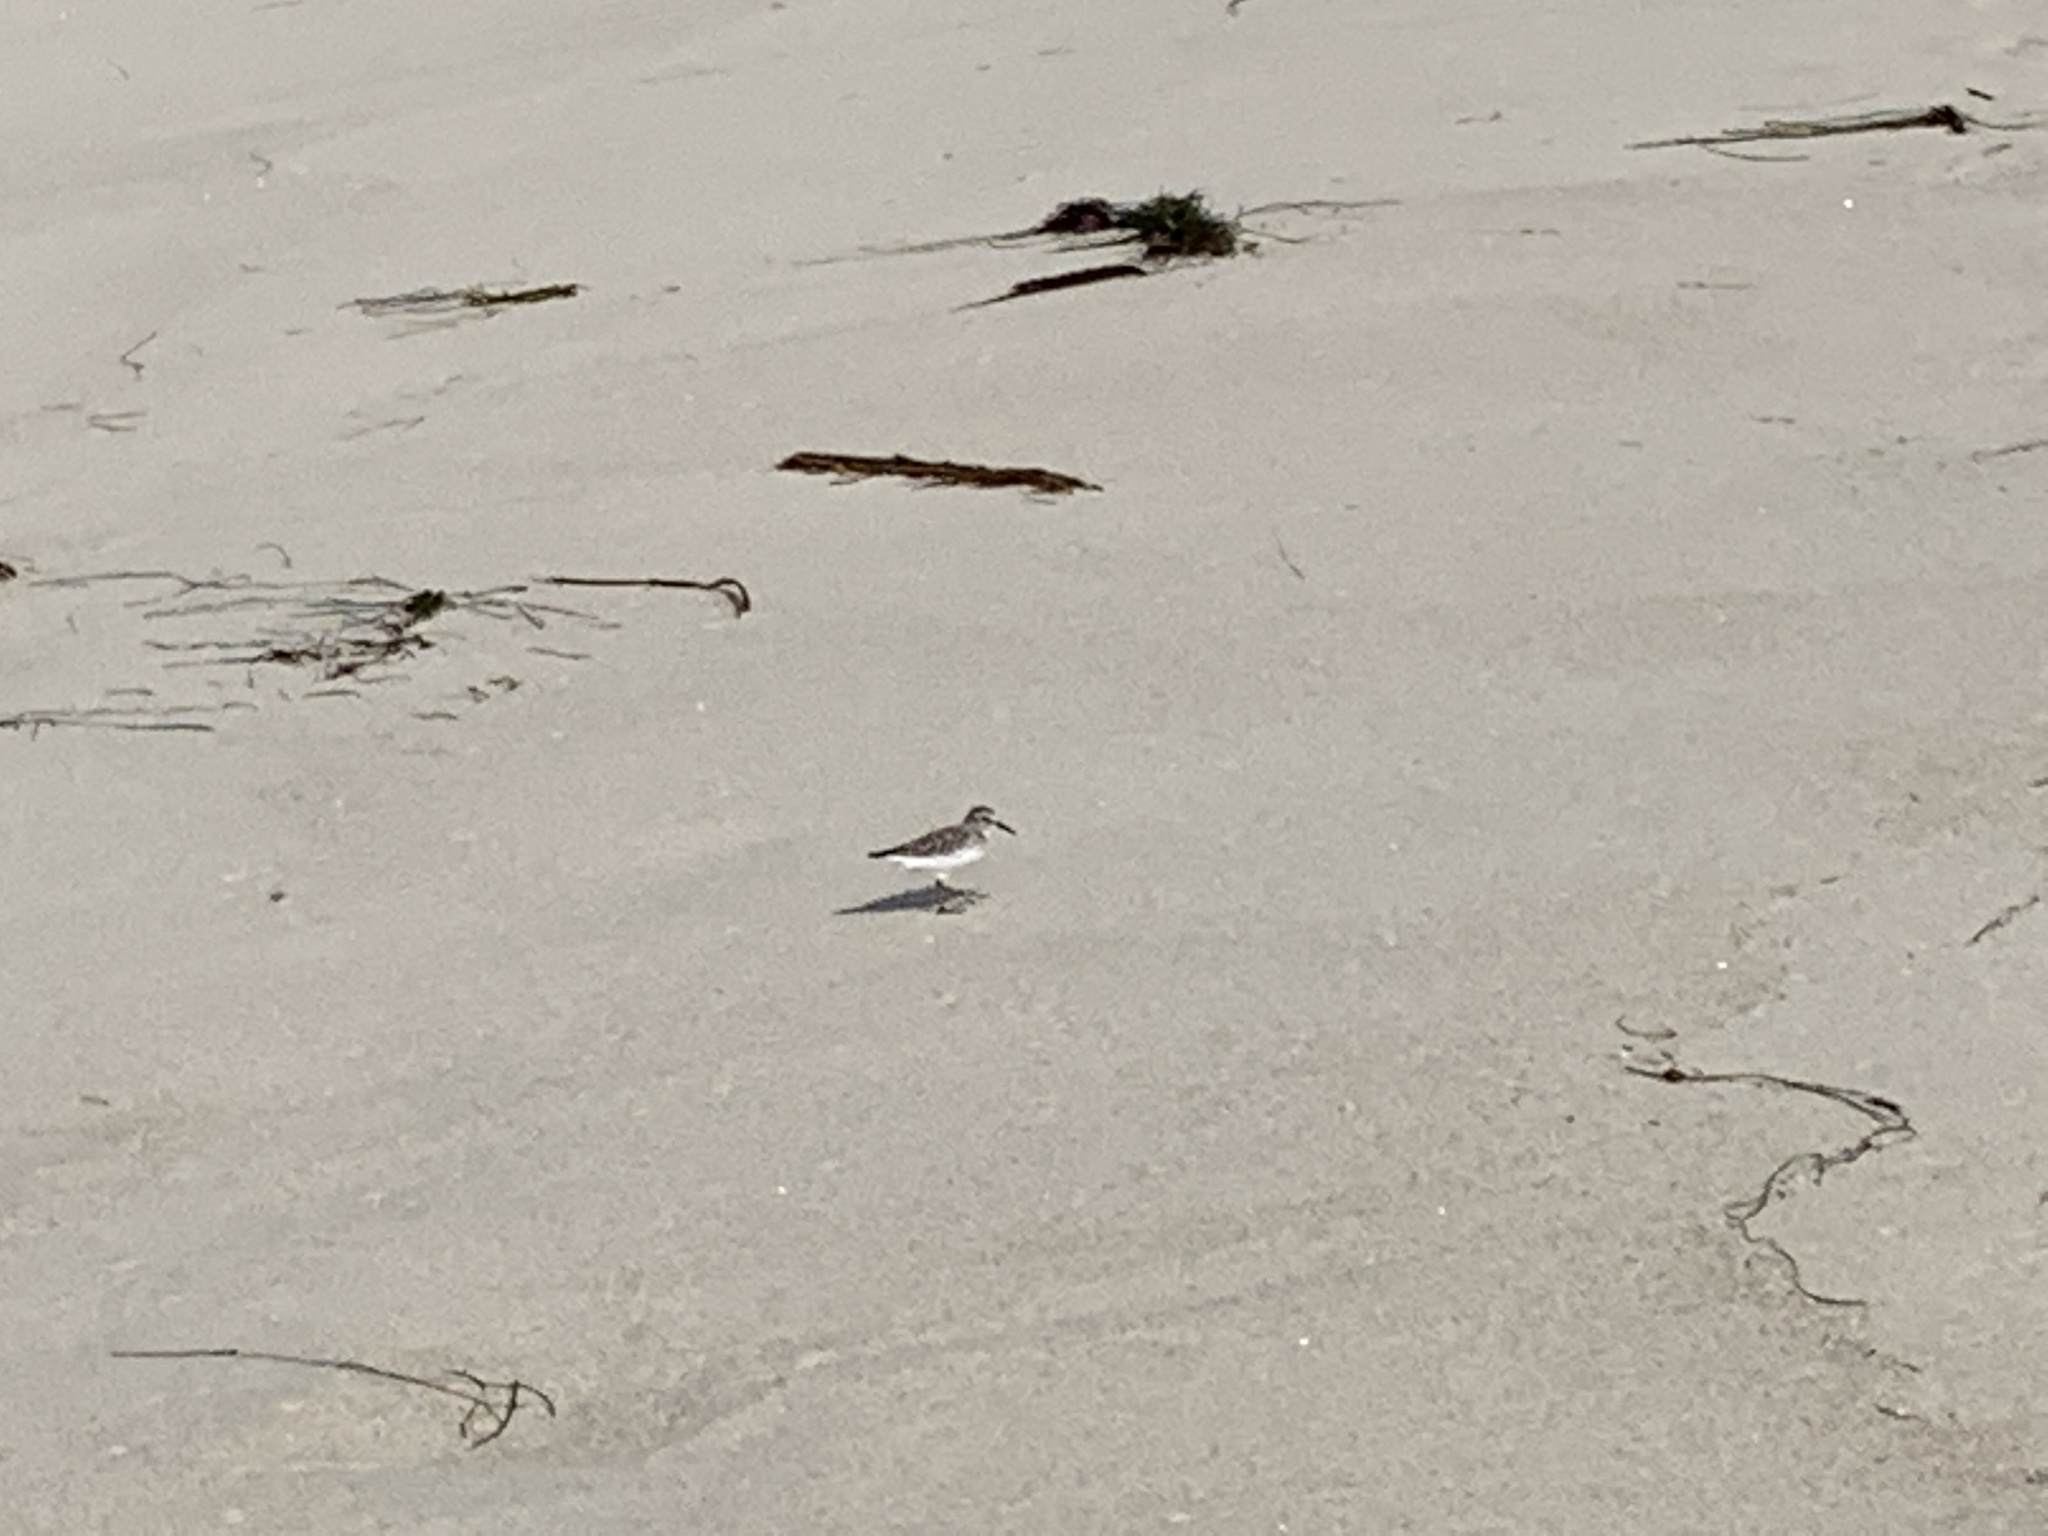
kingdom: Animalia
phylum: Chordata
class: Aves
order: Charadriiformes
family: Scolopacidae
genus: Calidris
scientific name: Calidris minutilla
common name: Least sandpiper
